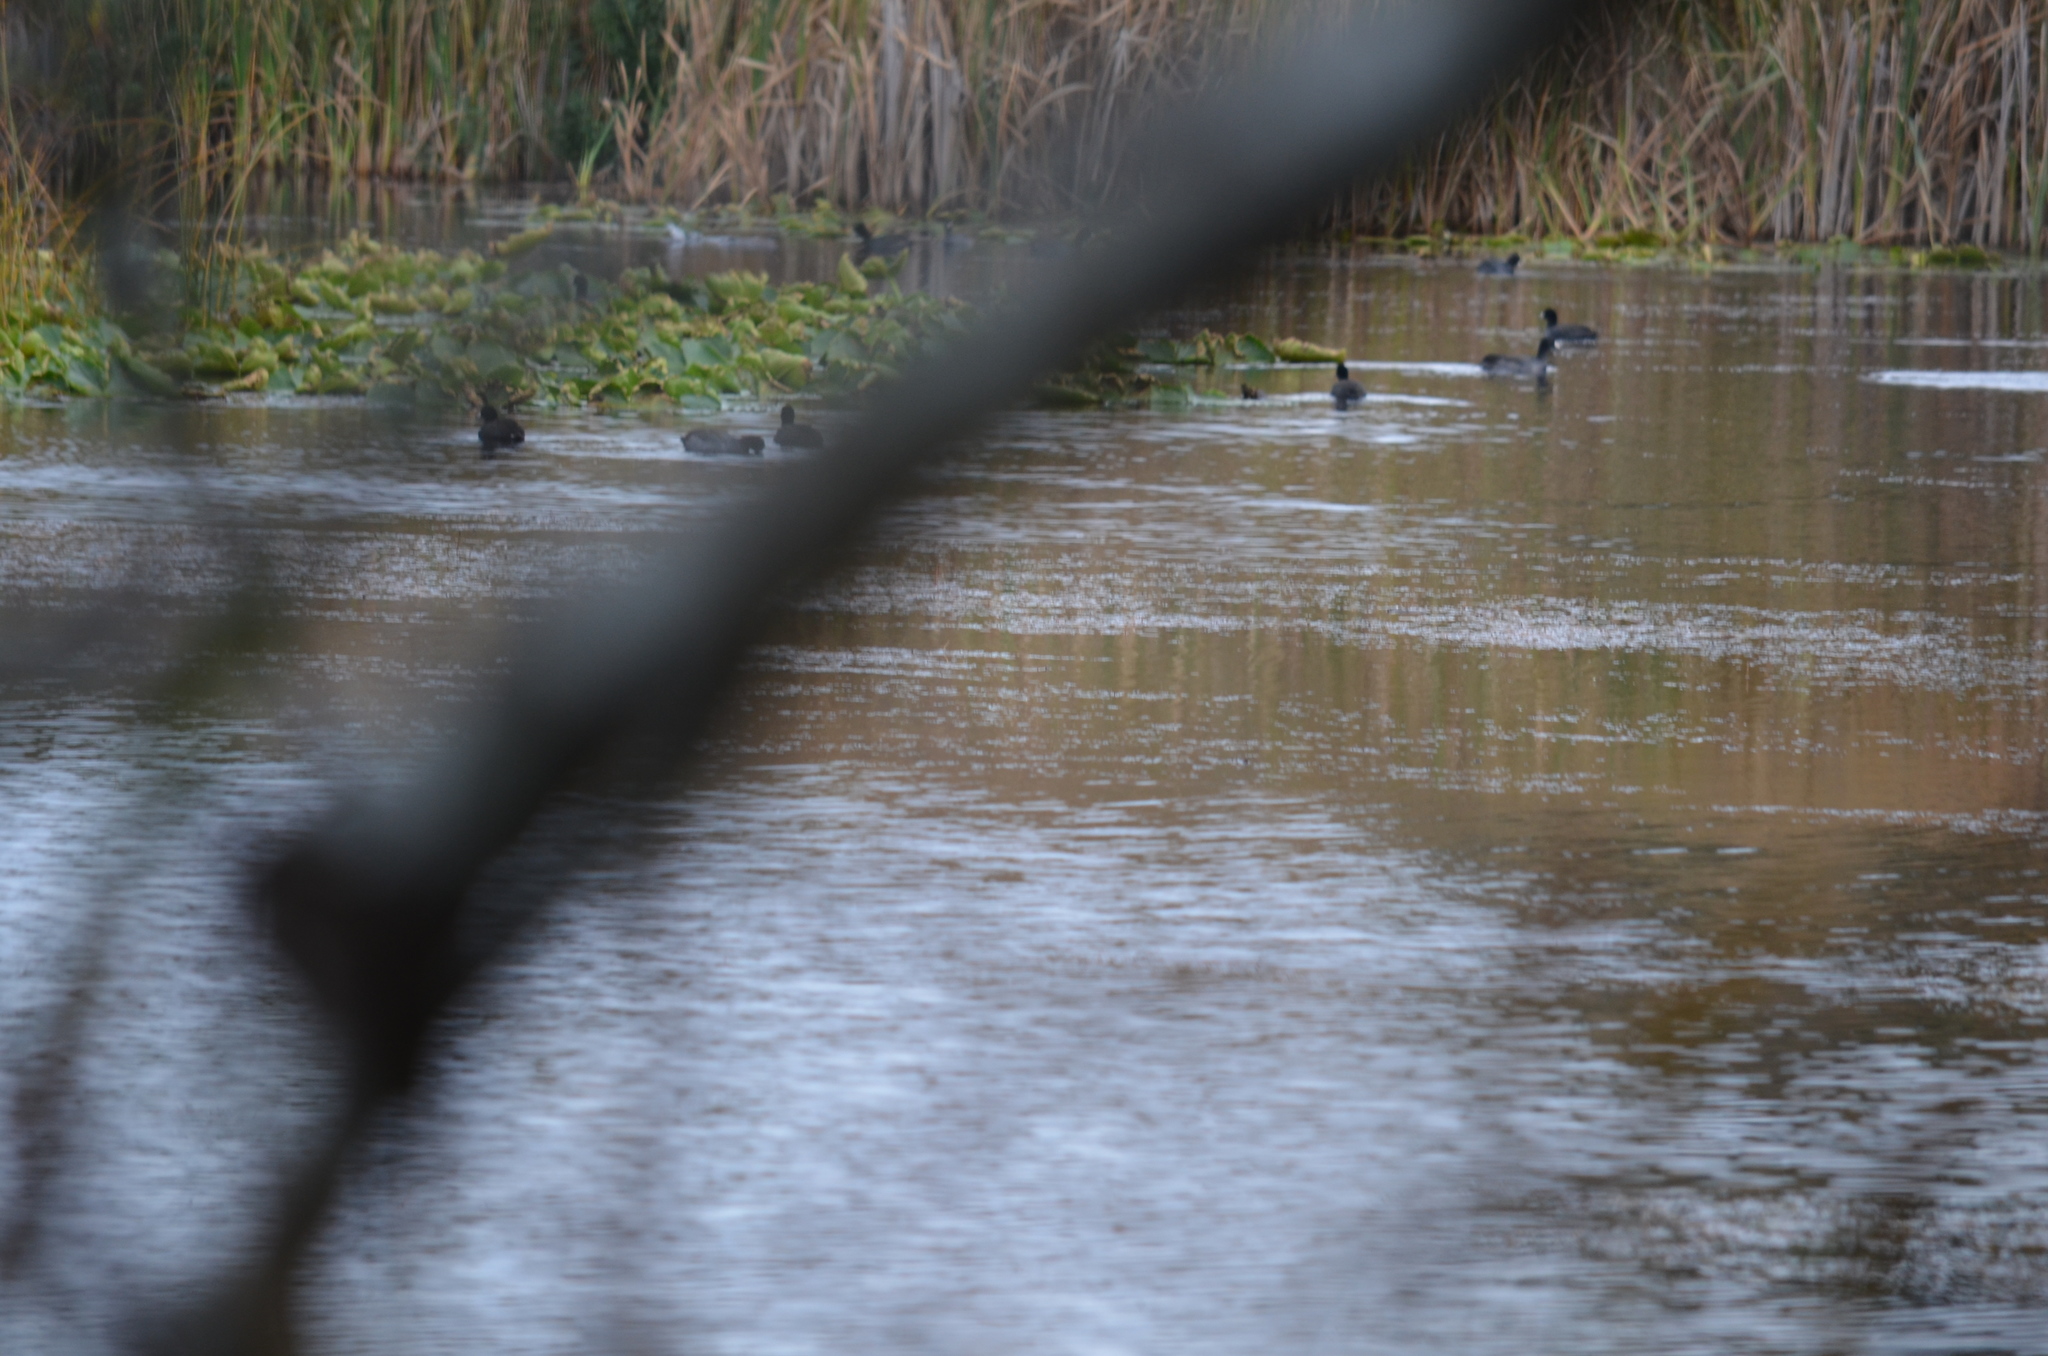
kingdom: Animalia
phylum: Chordata
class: Aves
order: Gruiformes
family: Rallidae
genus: Fulica
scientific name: Fulica americana
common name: American coot
